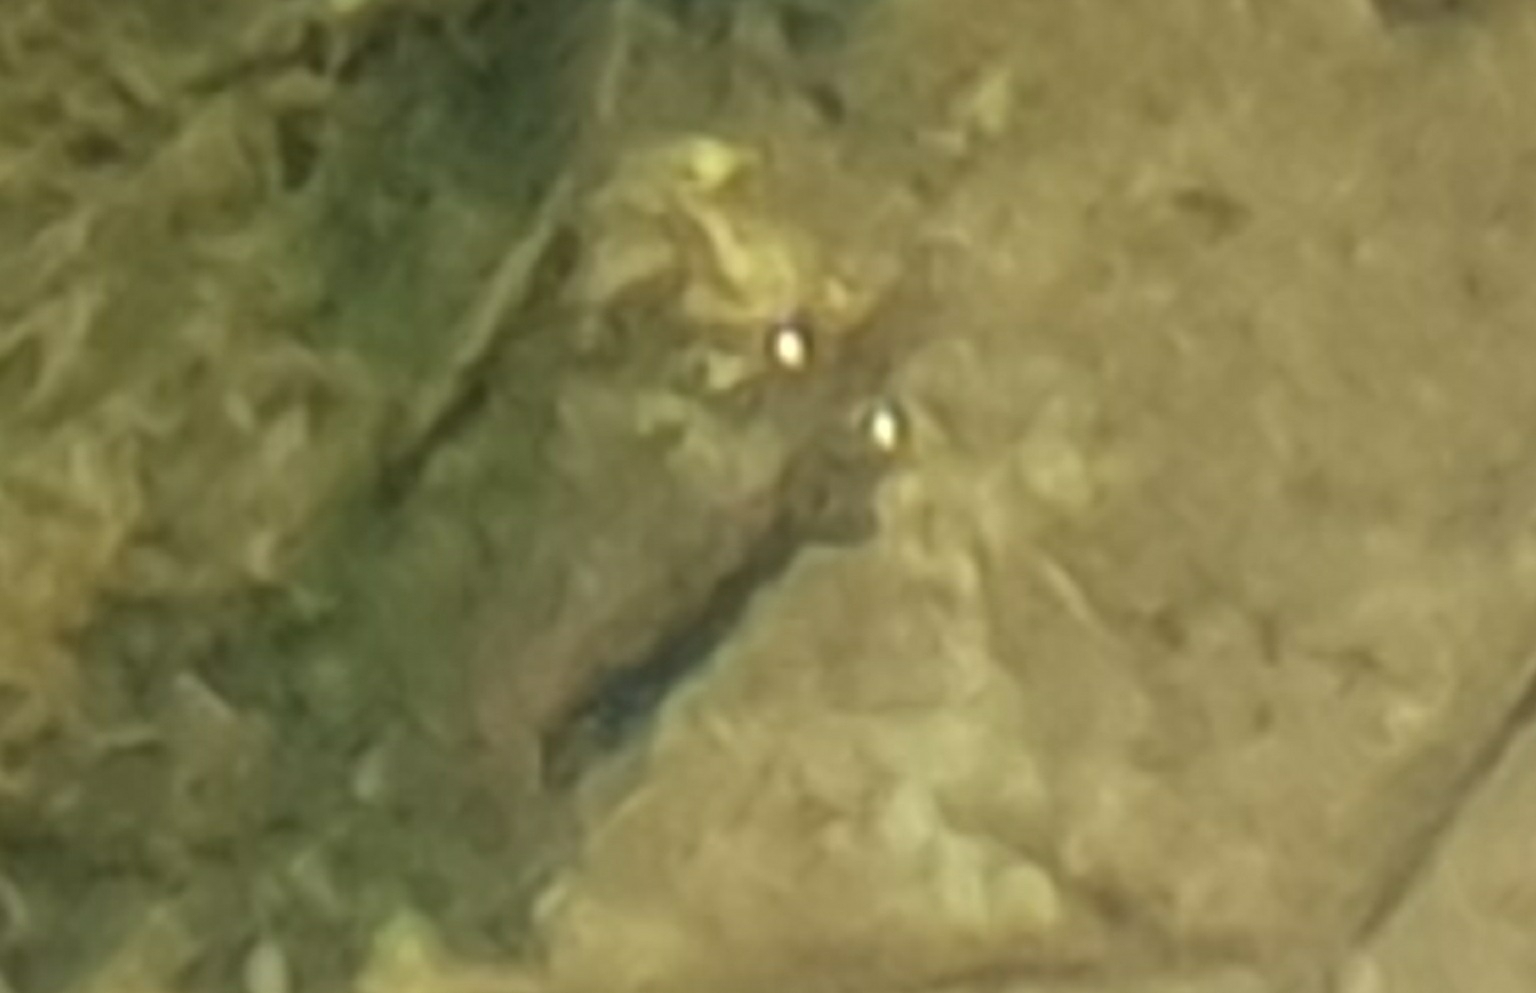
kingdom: Animalia
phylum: Arthropoda
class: Malacostraca
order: Decapoda
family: Atyidae
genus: Paratya
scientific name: Paratya curvirostris
